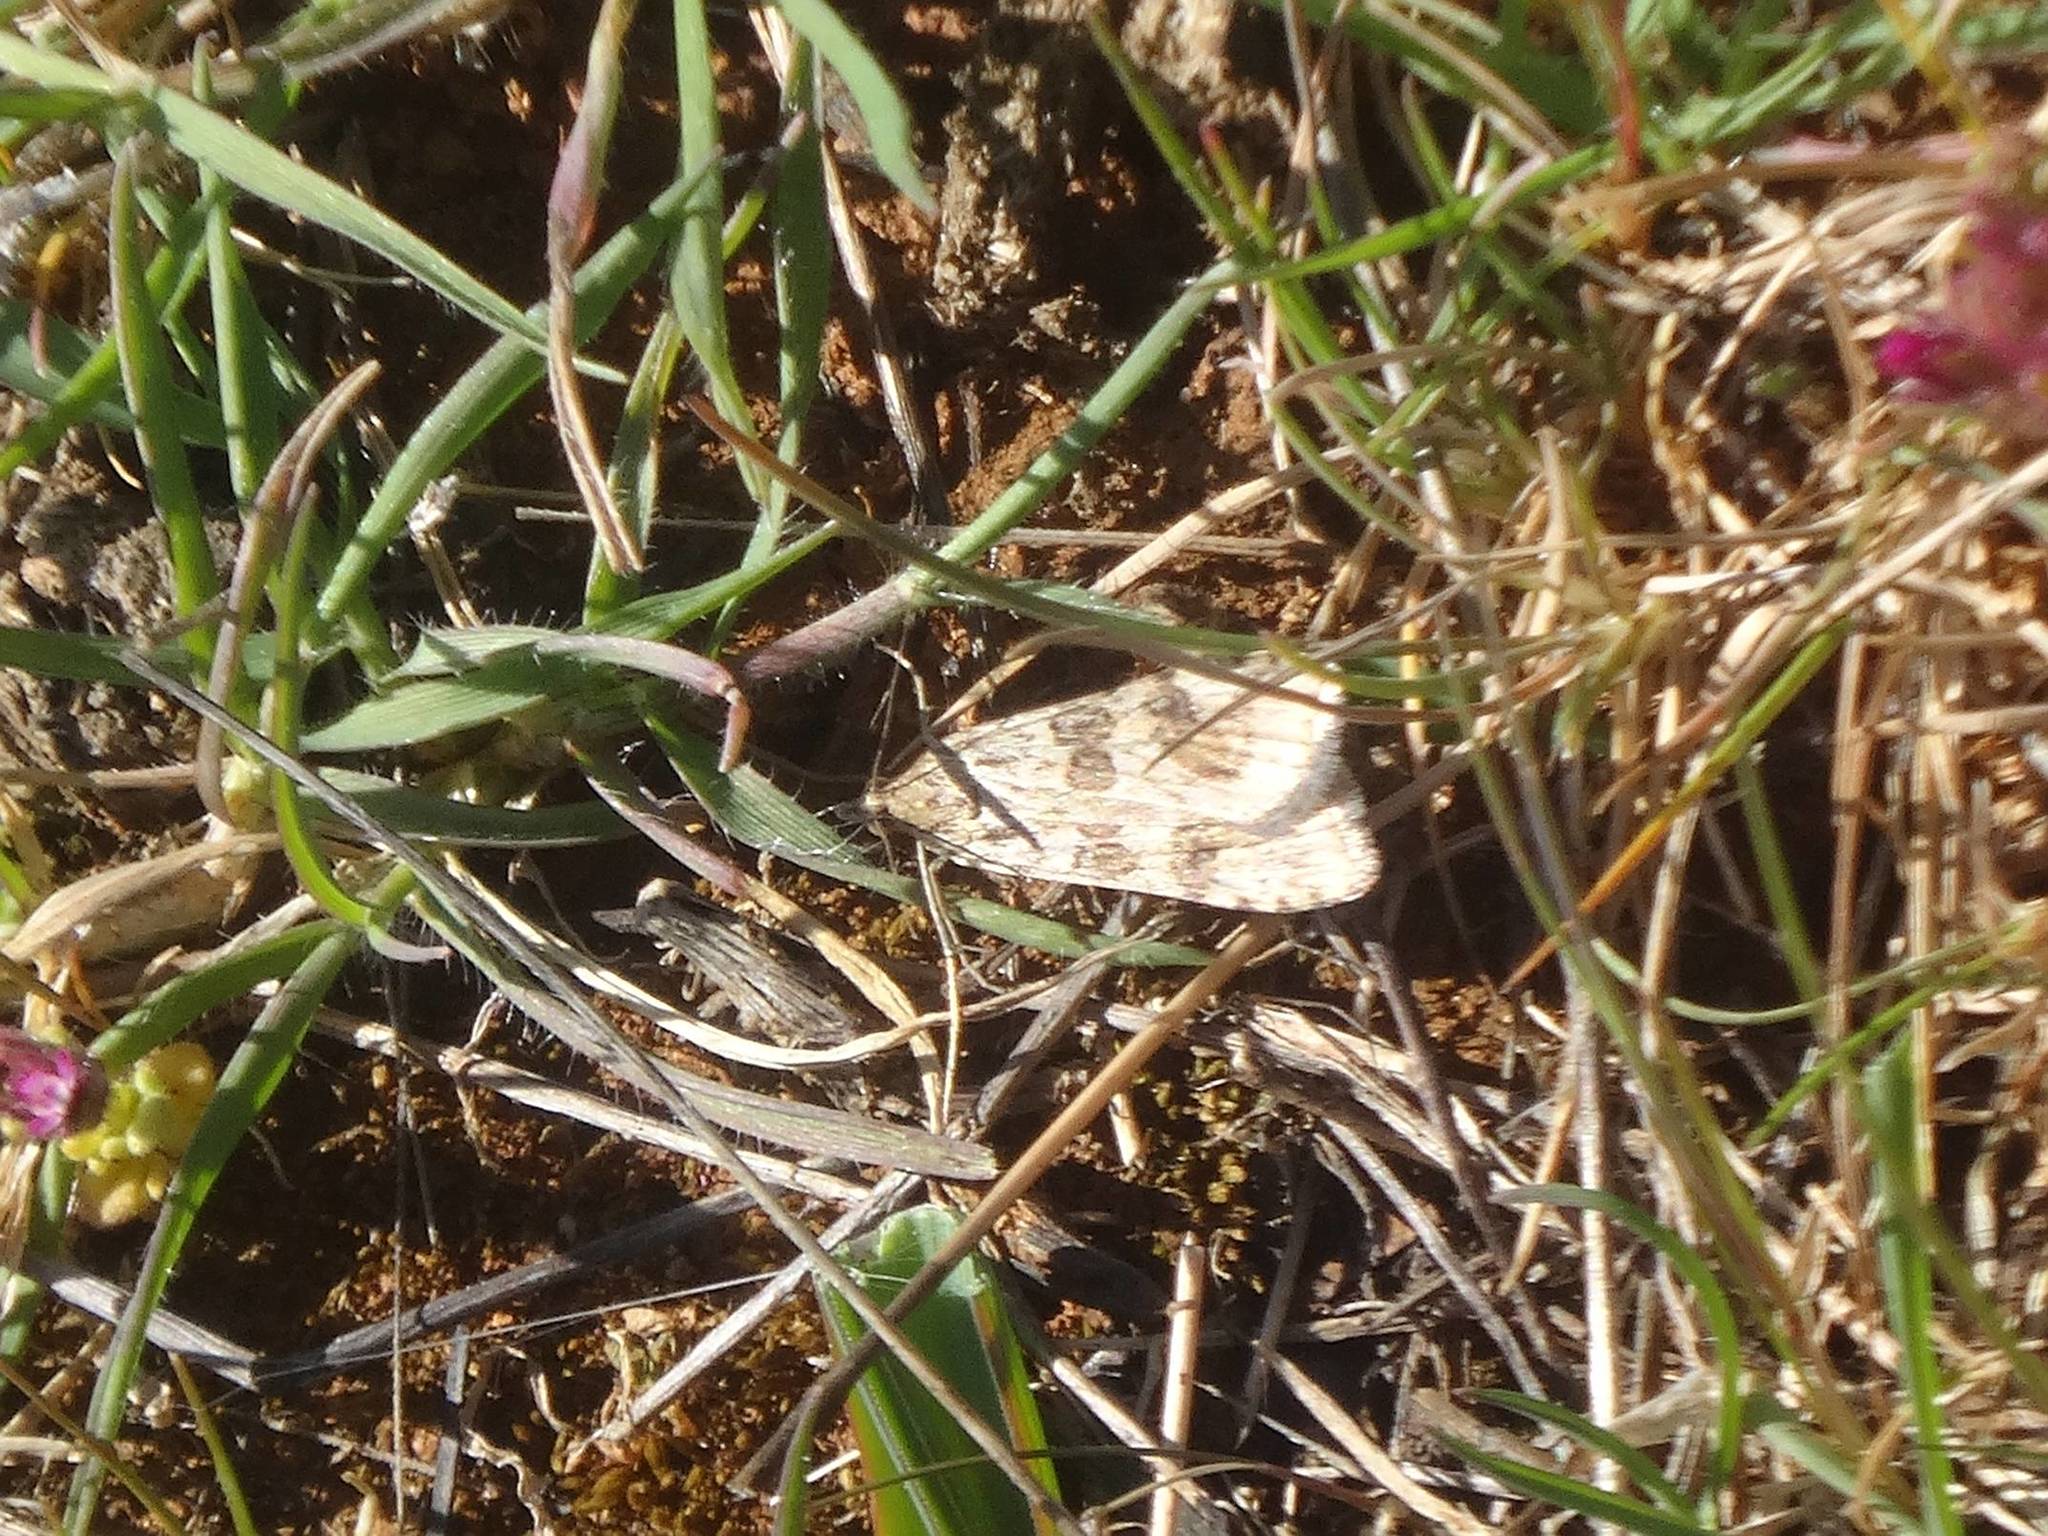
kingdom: Animalia
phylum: Arthropoda
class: Insecta
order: Lepidoptera
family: Crambidae
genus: Nomophila
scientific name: Nomophila noctuella
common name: Rush veneer
